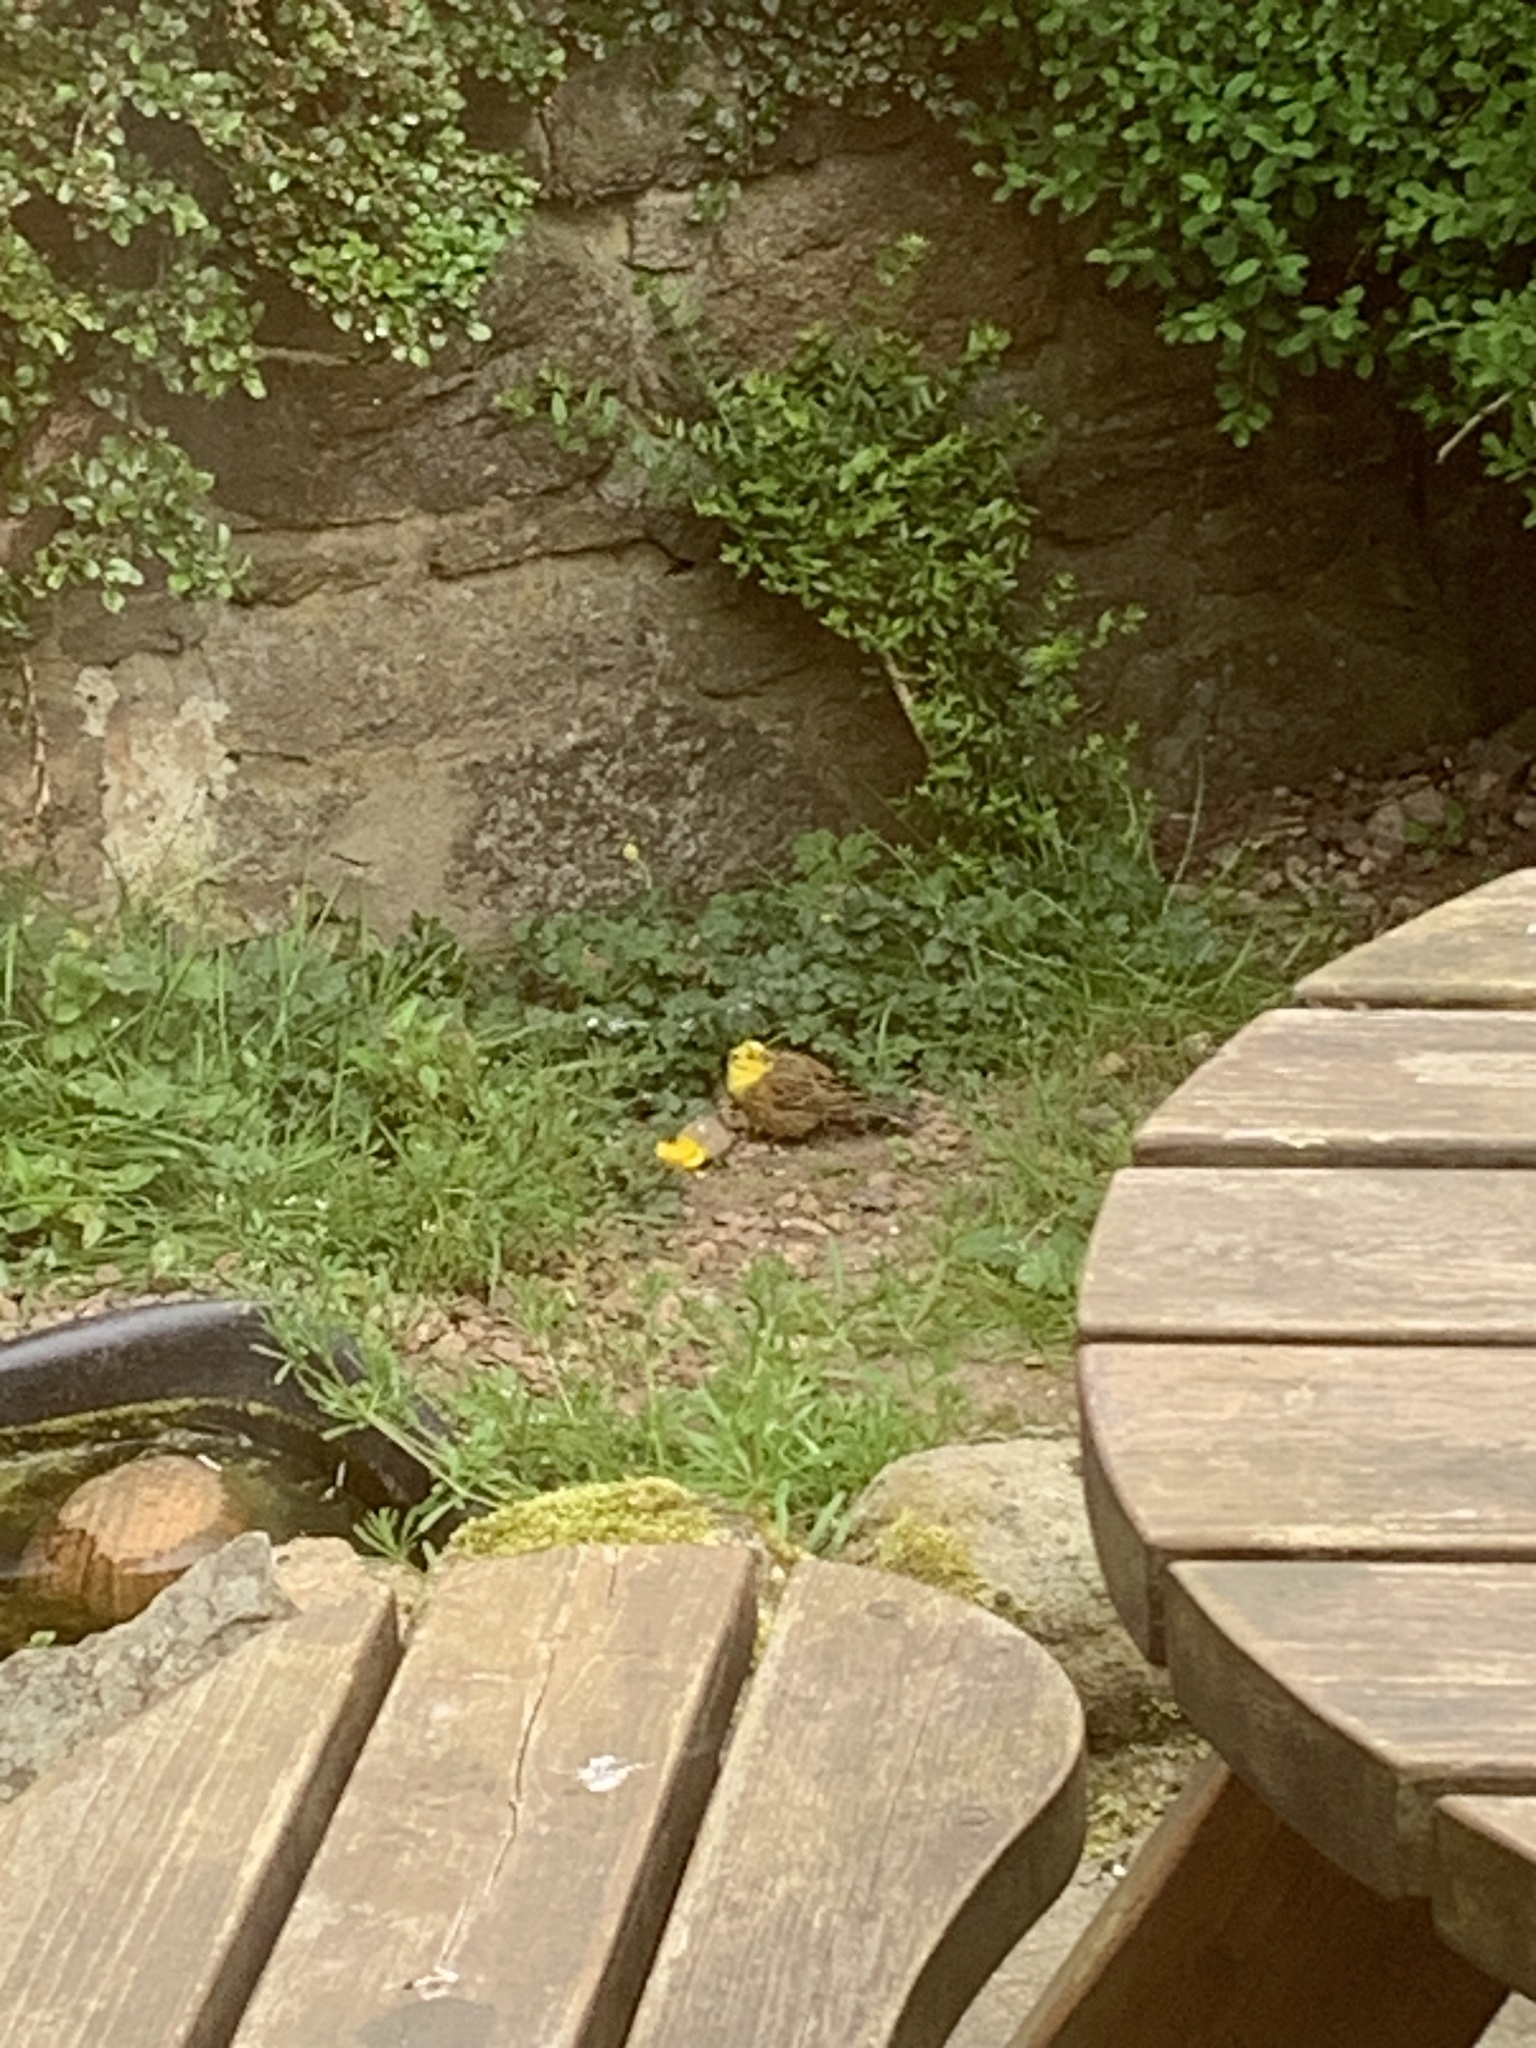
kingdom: Animalia
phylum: Chordata
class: Aves
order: Passeriformes
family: Emberizidae
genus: Emberiza
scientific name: Emberiza citrinella
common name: Yellowhammer
